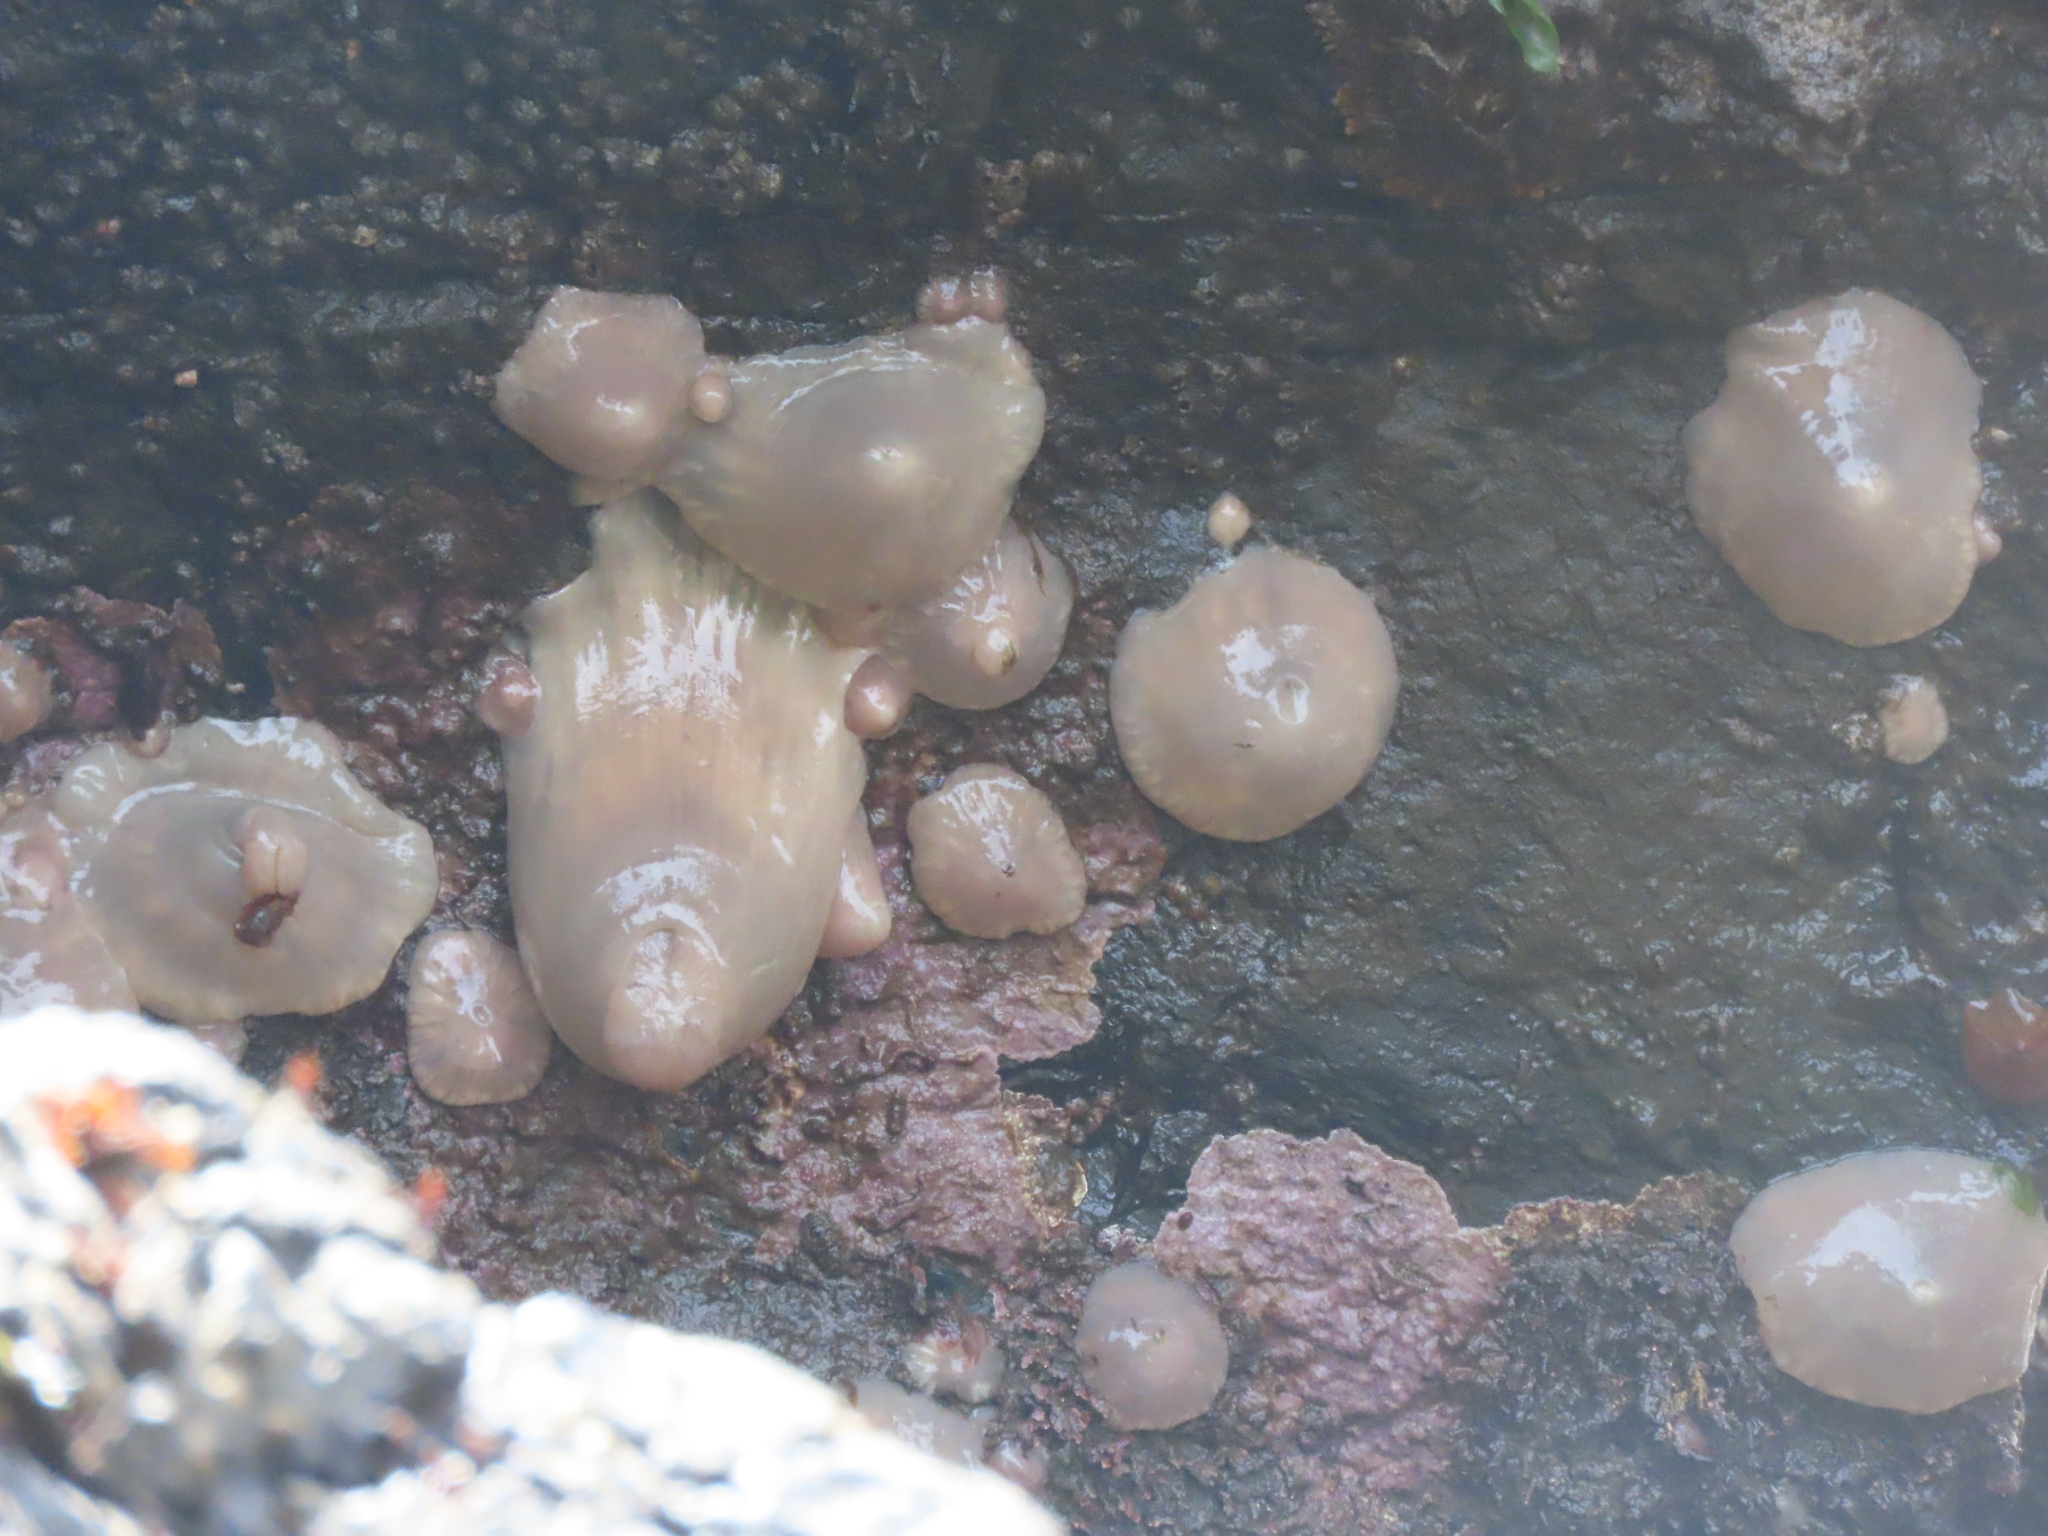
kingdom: Animalia
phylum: Cnidaria
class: Anthozoa
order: Actiniaria
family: Metridiidae
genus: Metridium
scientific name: Metridium senile
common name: Clonal plumose anemone
